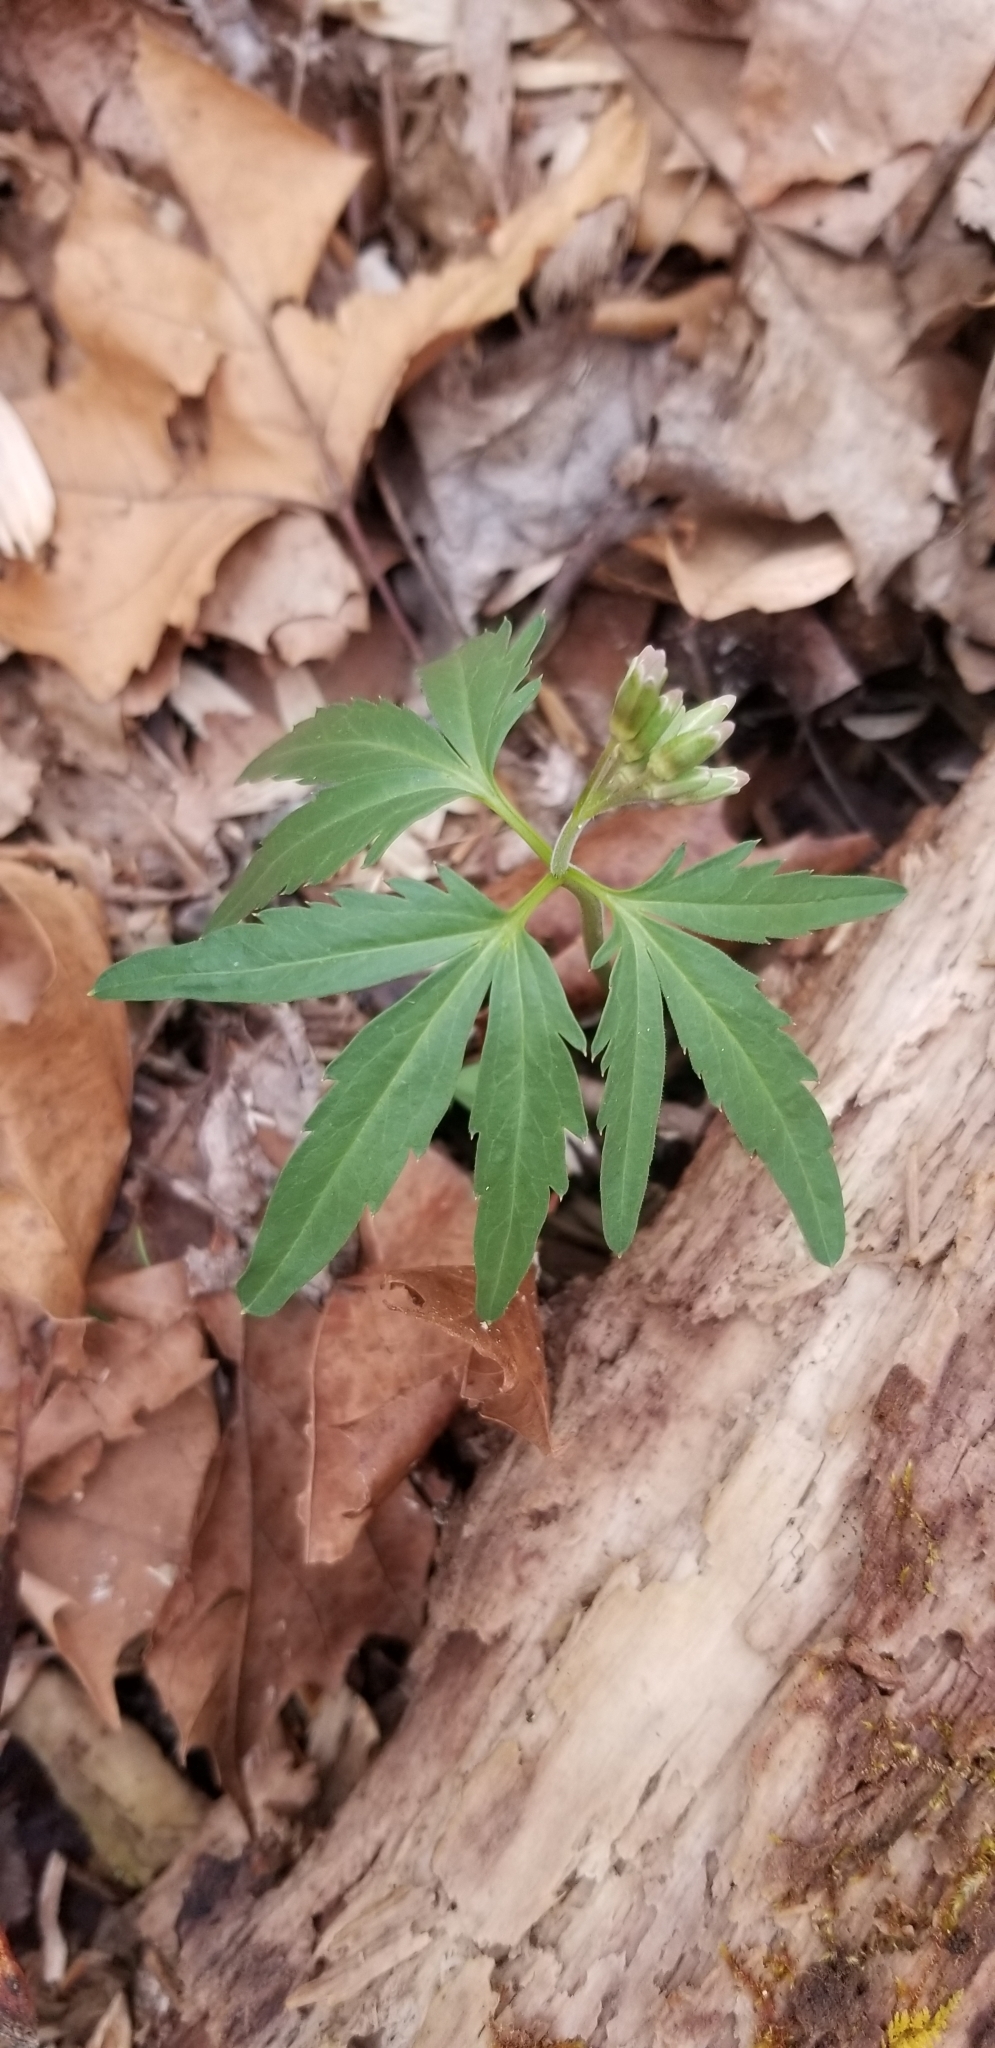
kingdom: Plantae
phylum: Tracheophyta
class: Magnoliopsida
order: Brassicales
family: Brassicaceae
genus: Cardamine
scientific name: Cardamine concatenata
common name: Cut-leaf toothcup
